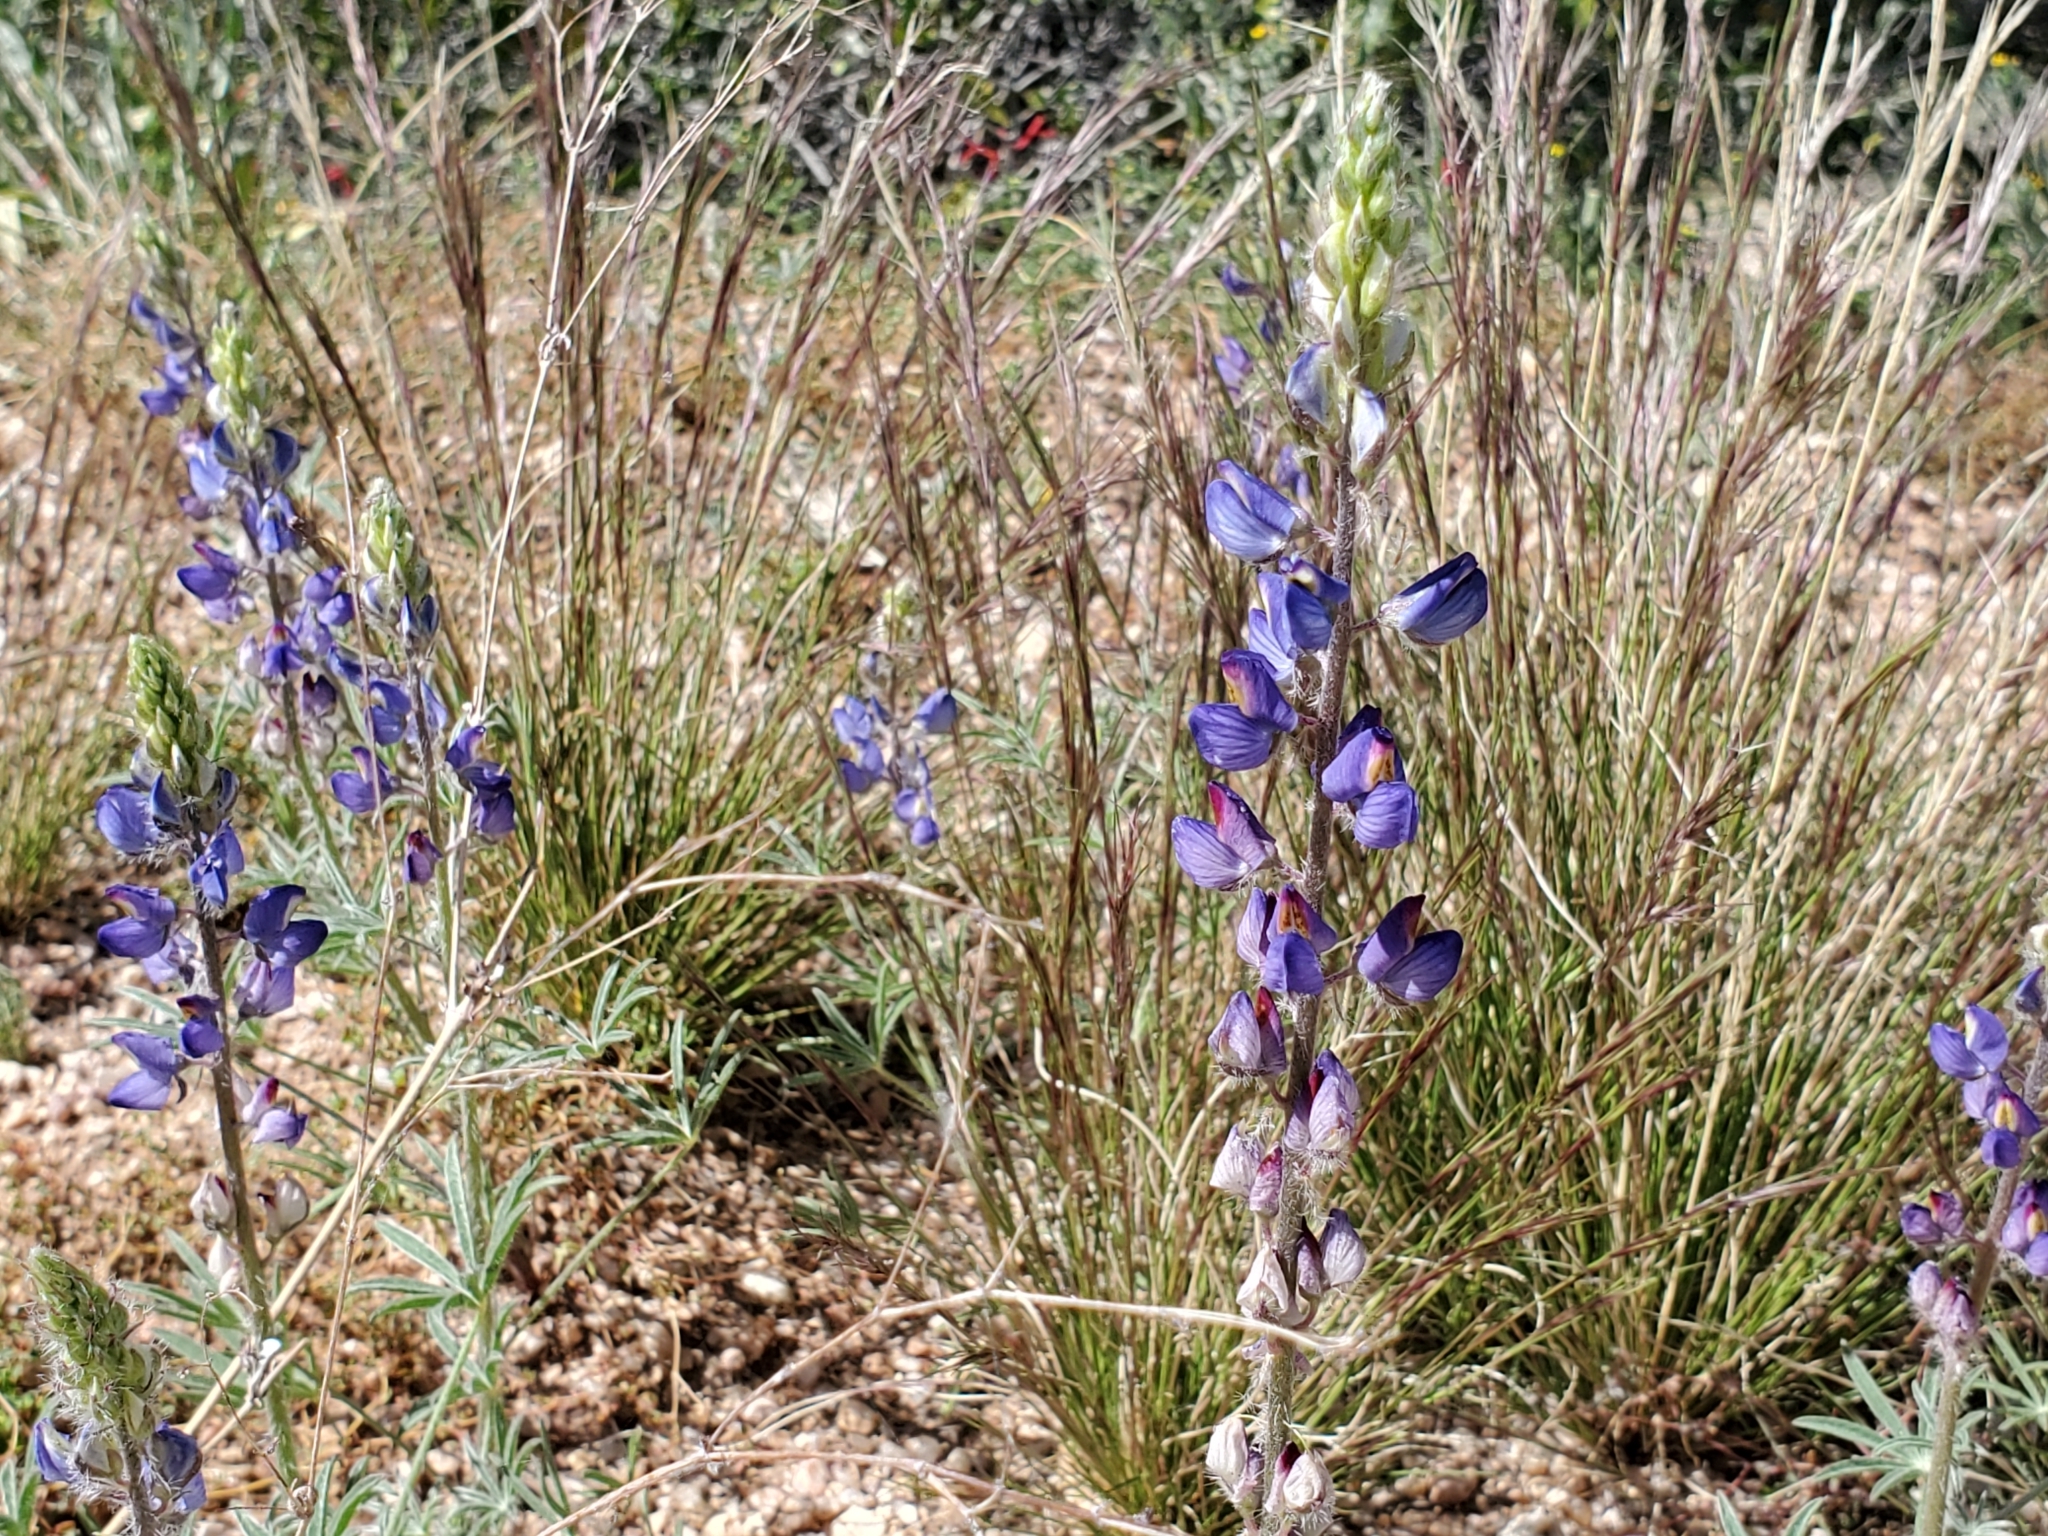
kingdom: Plantae
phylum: Tracheophyta
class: Magnoliopsida
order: Fabales
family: Fabaceae
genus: Lupinus
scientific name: Lupinus sparsiflorus
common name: Coulter's lupine
